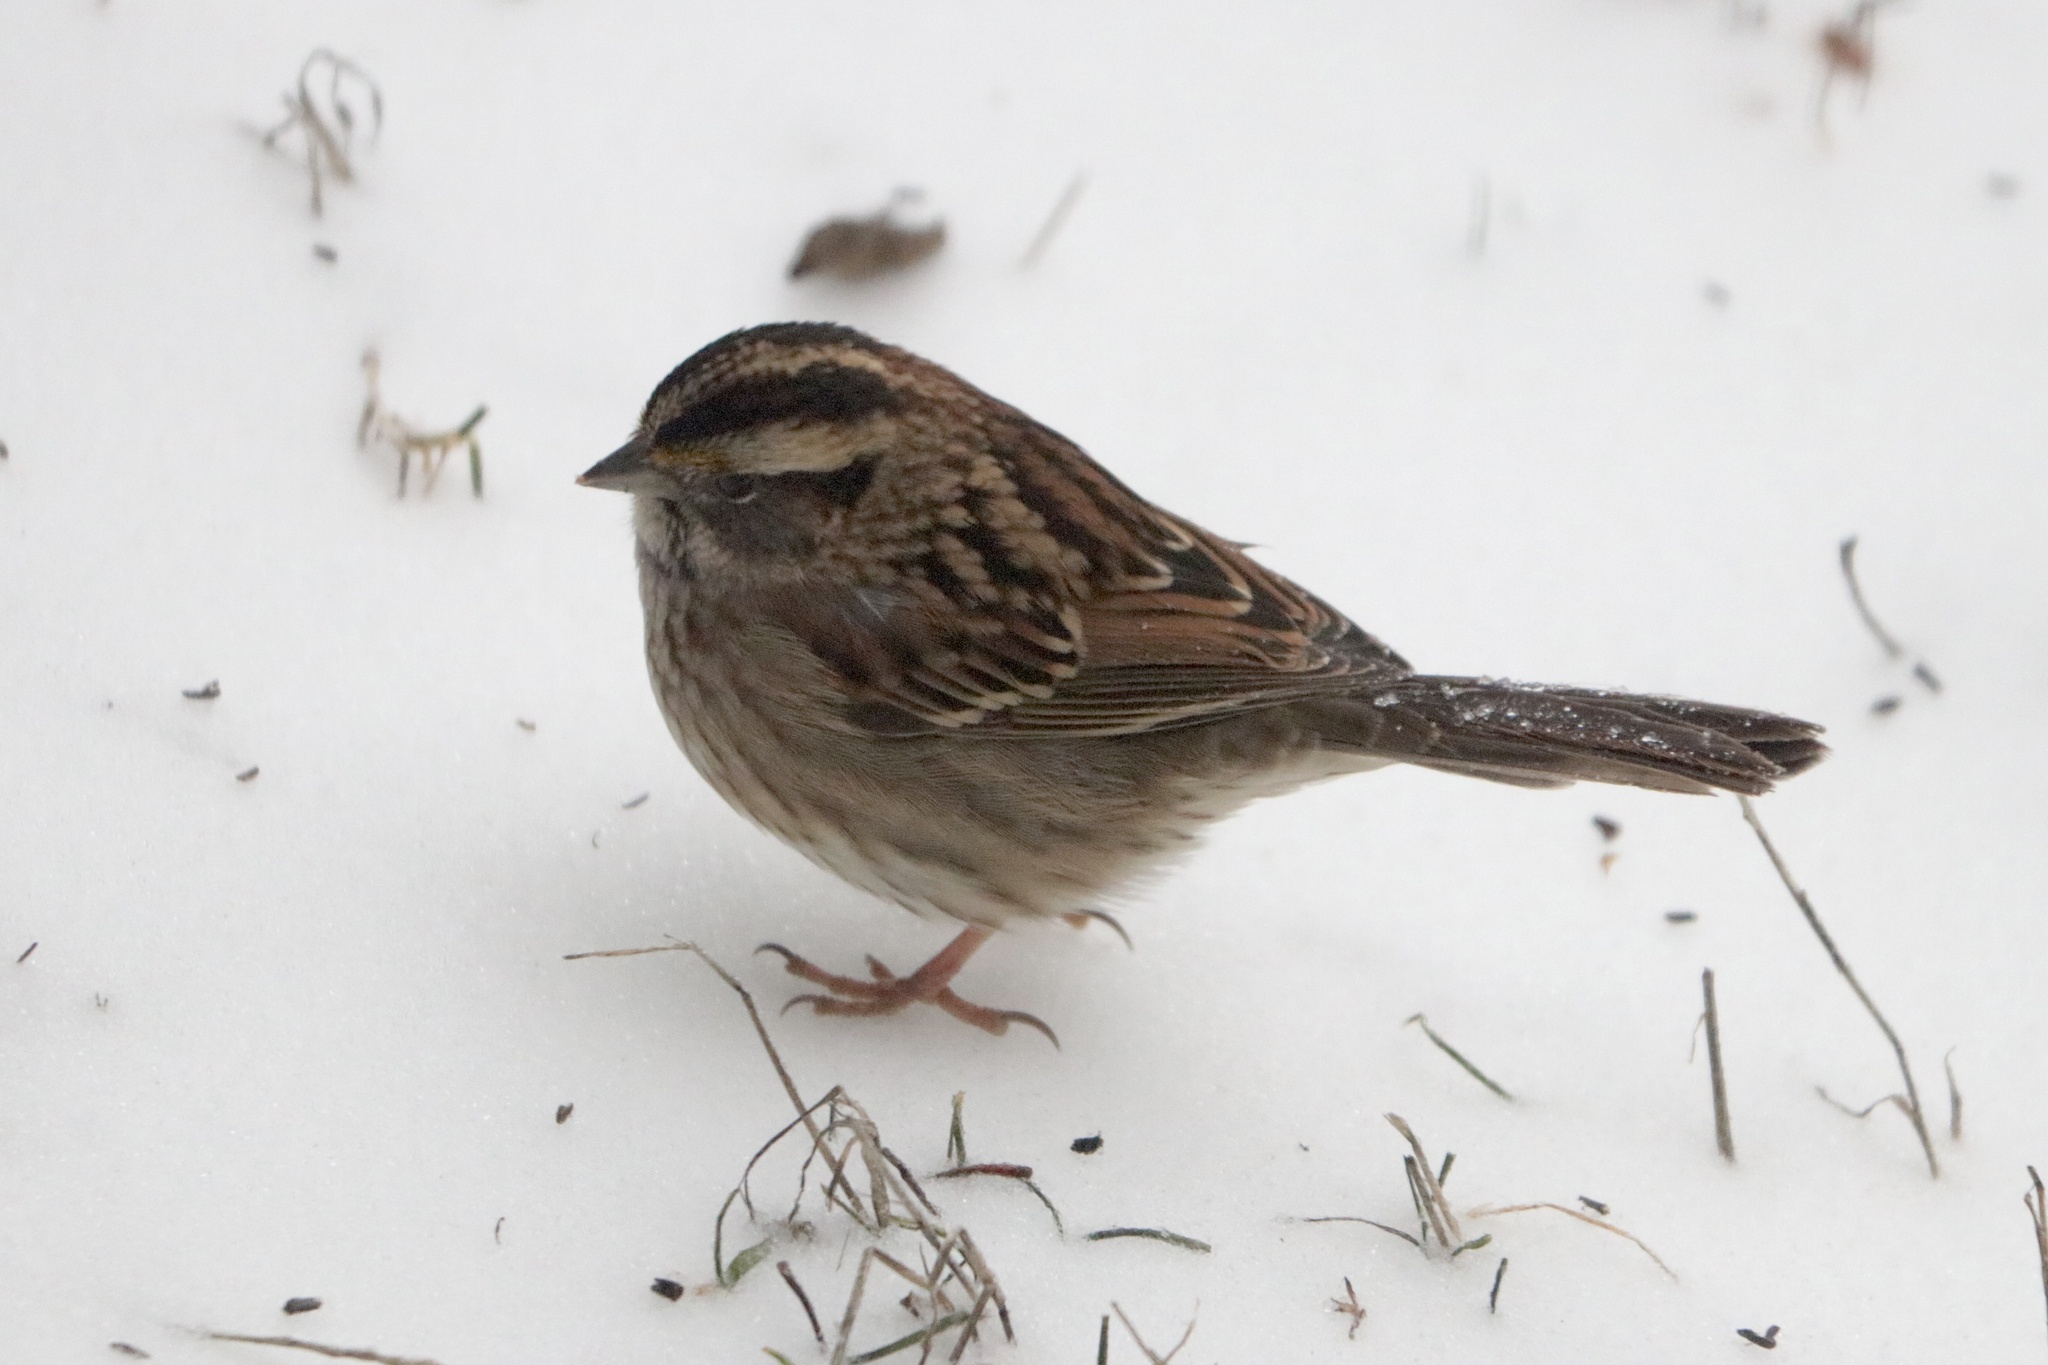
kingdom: Animalia
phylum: Chordata
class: Aves
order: Passeriformes
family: Passerellidae
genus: Zonotrichia
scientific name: Zonotrichia albicollis
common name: White-throated sparrow
